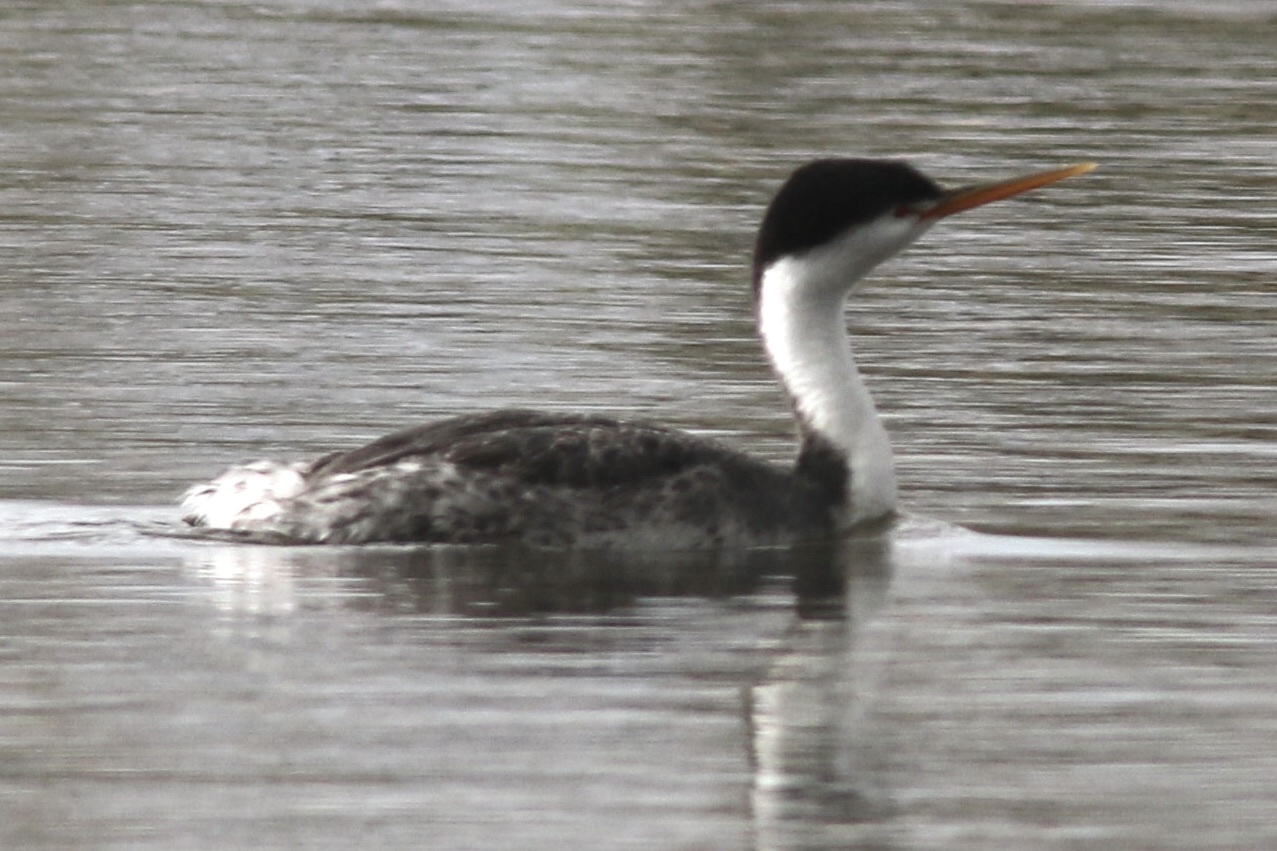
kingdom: Animalia
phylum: Chordata
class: Aves
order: Podicipediformes
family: Podicipedidae
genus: Aechmophorus
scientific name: Aechmophorus clarkii
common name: Clark's grebe
